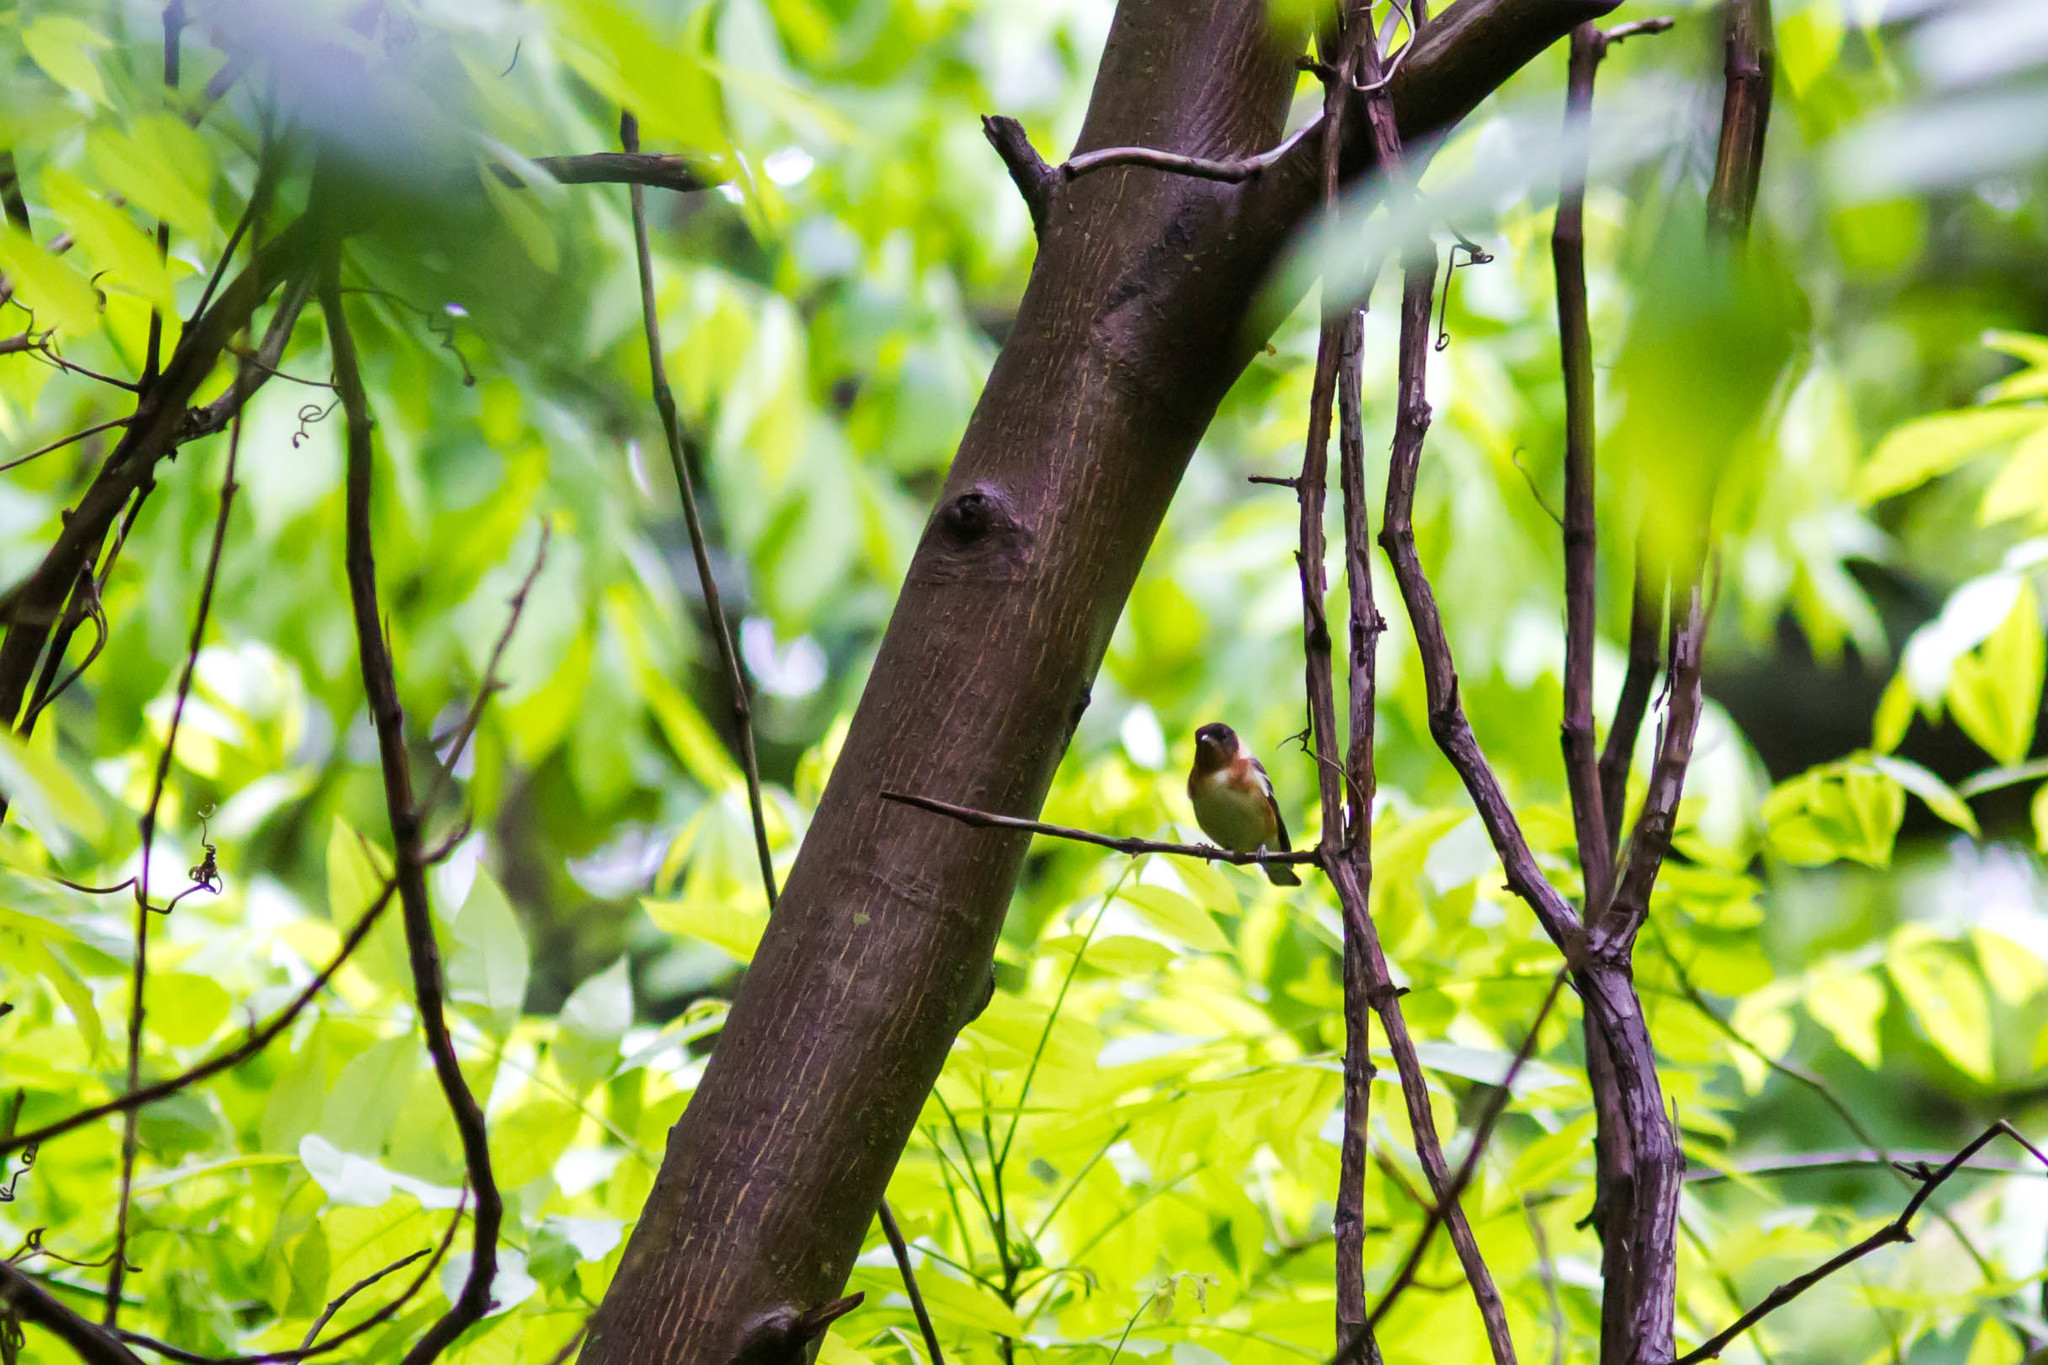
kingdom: Animalia
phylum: Chordata
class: Aves
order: Passeriformes
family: Parulidae
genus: Setophaga
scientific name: Setophaga castanea
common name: Bay-breasted warbler
